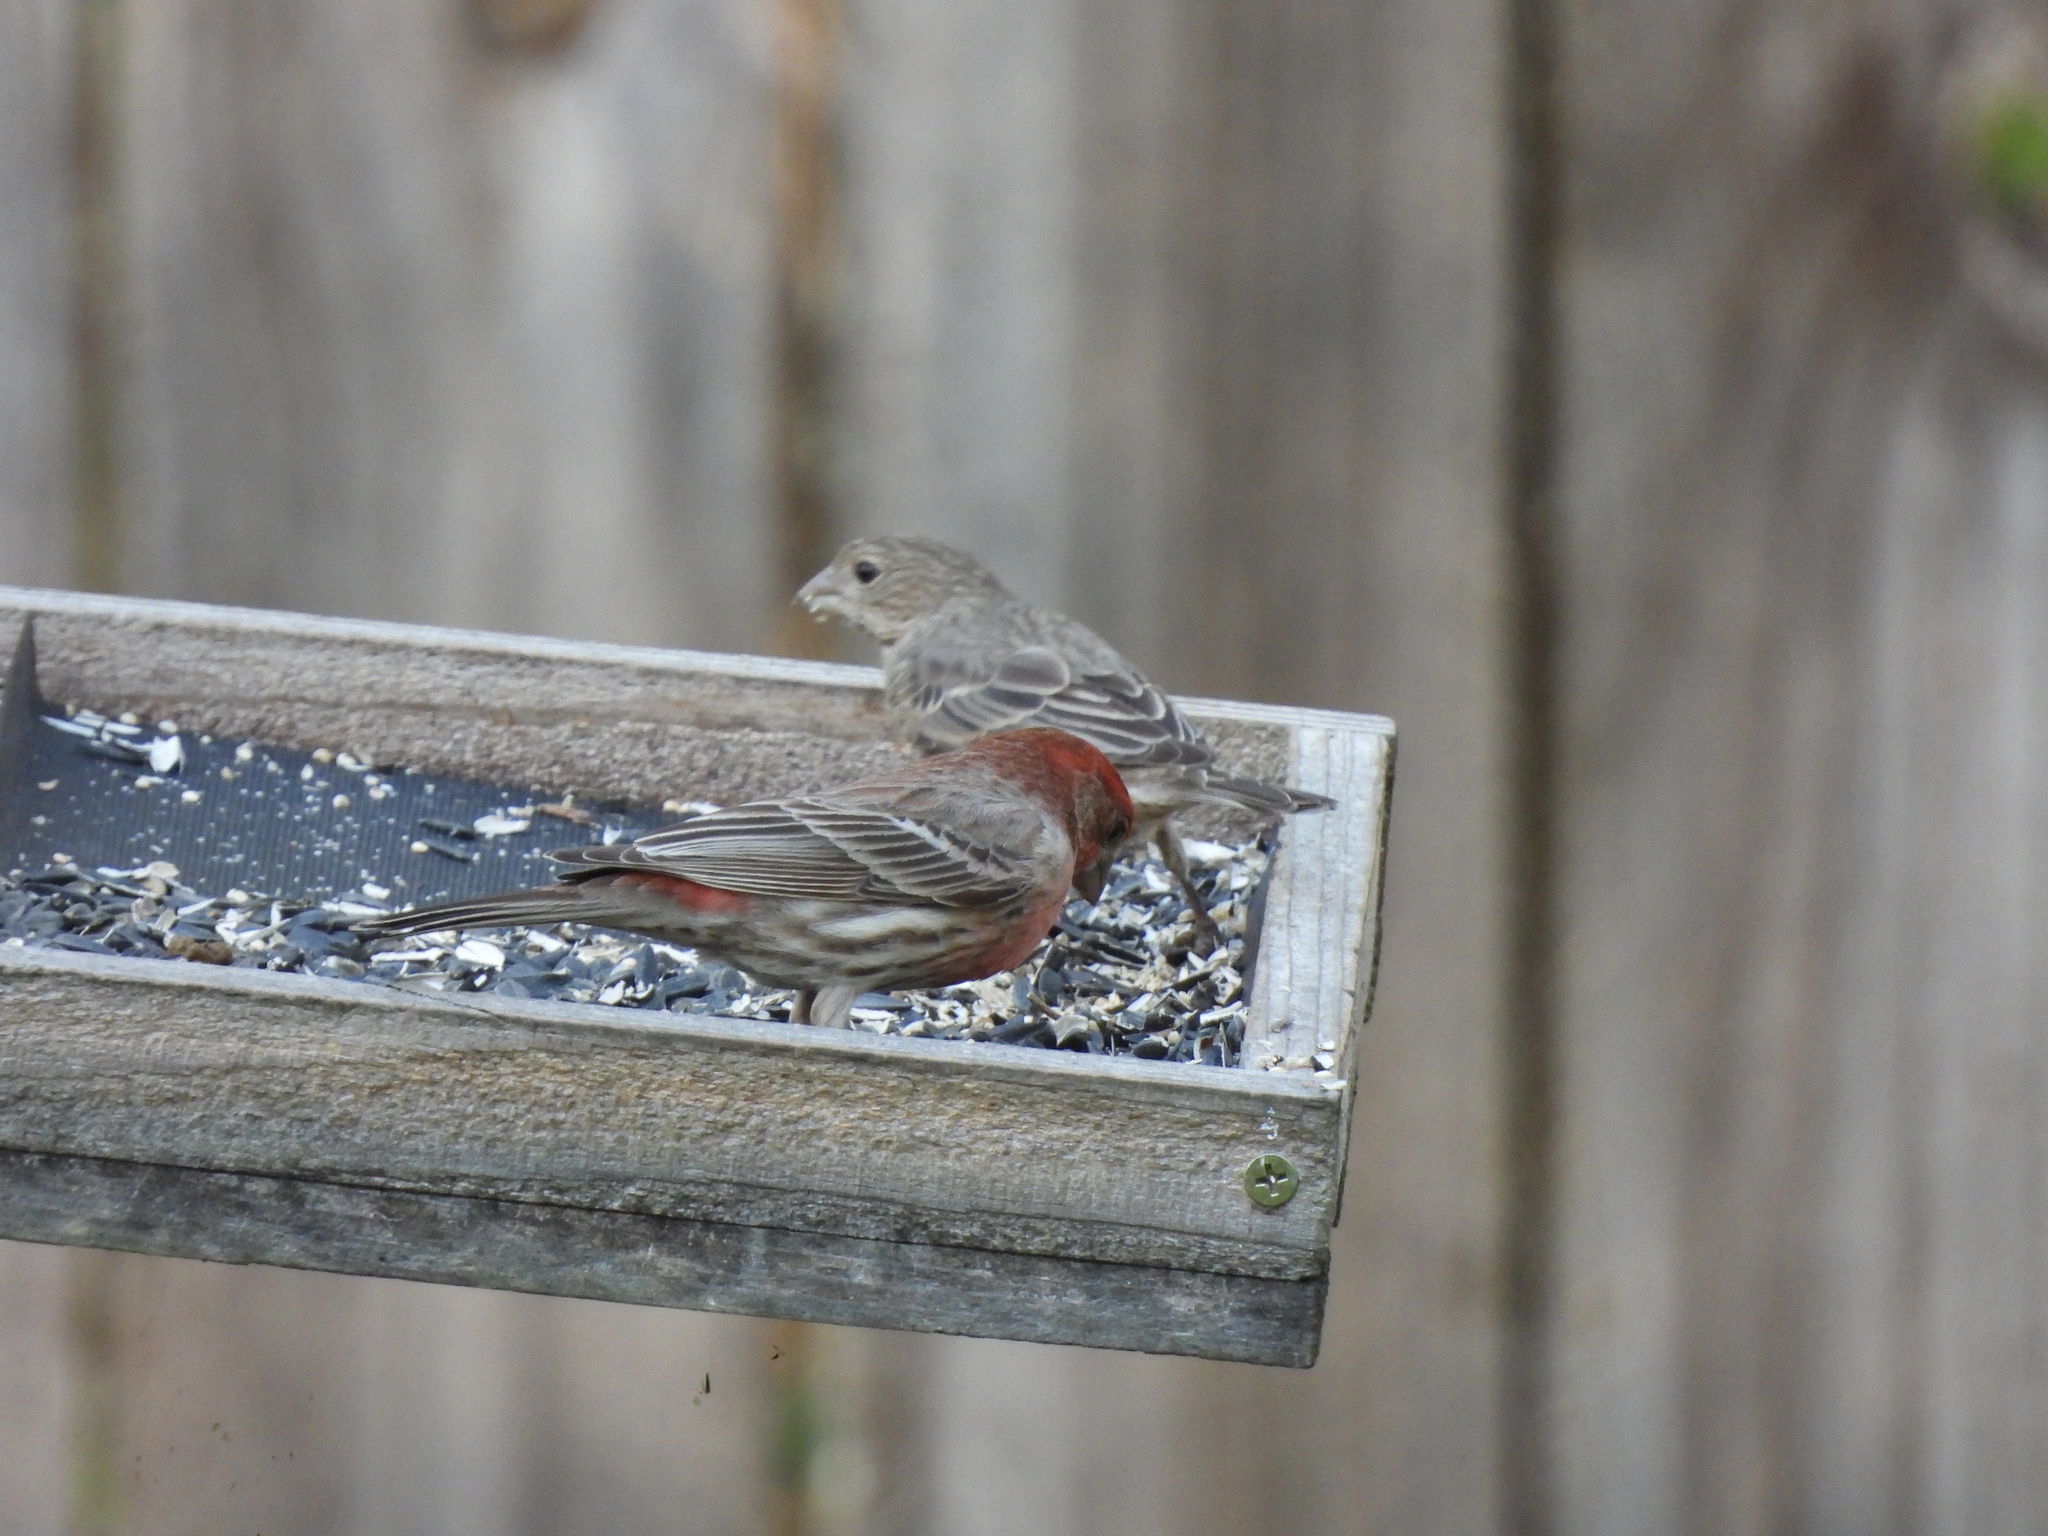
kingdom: Animalia
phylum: Chordata
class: Aves
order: Passeriformes
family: Fringillidae
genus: Haemorhous
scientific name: Haemorhous mexicanus
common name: House finch
